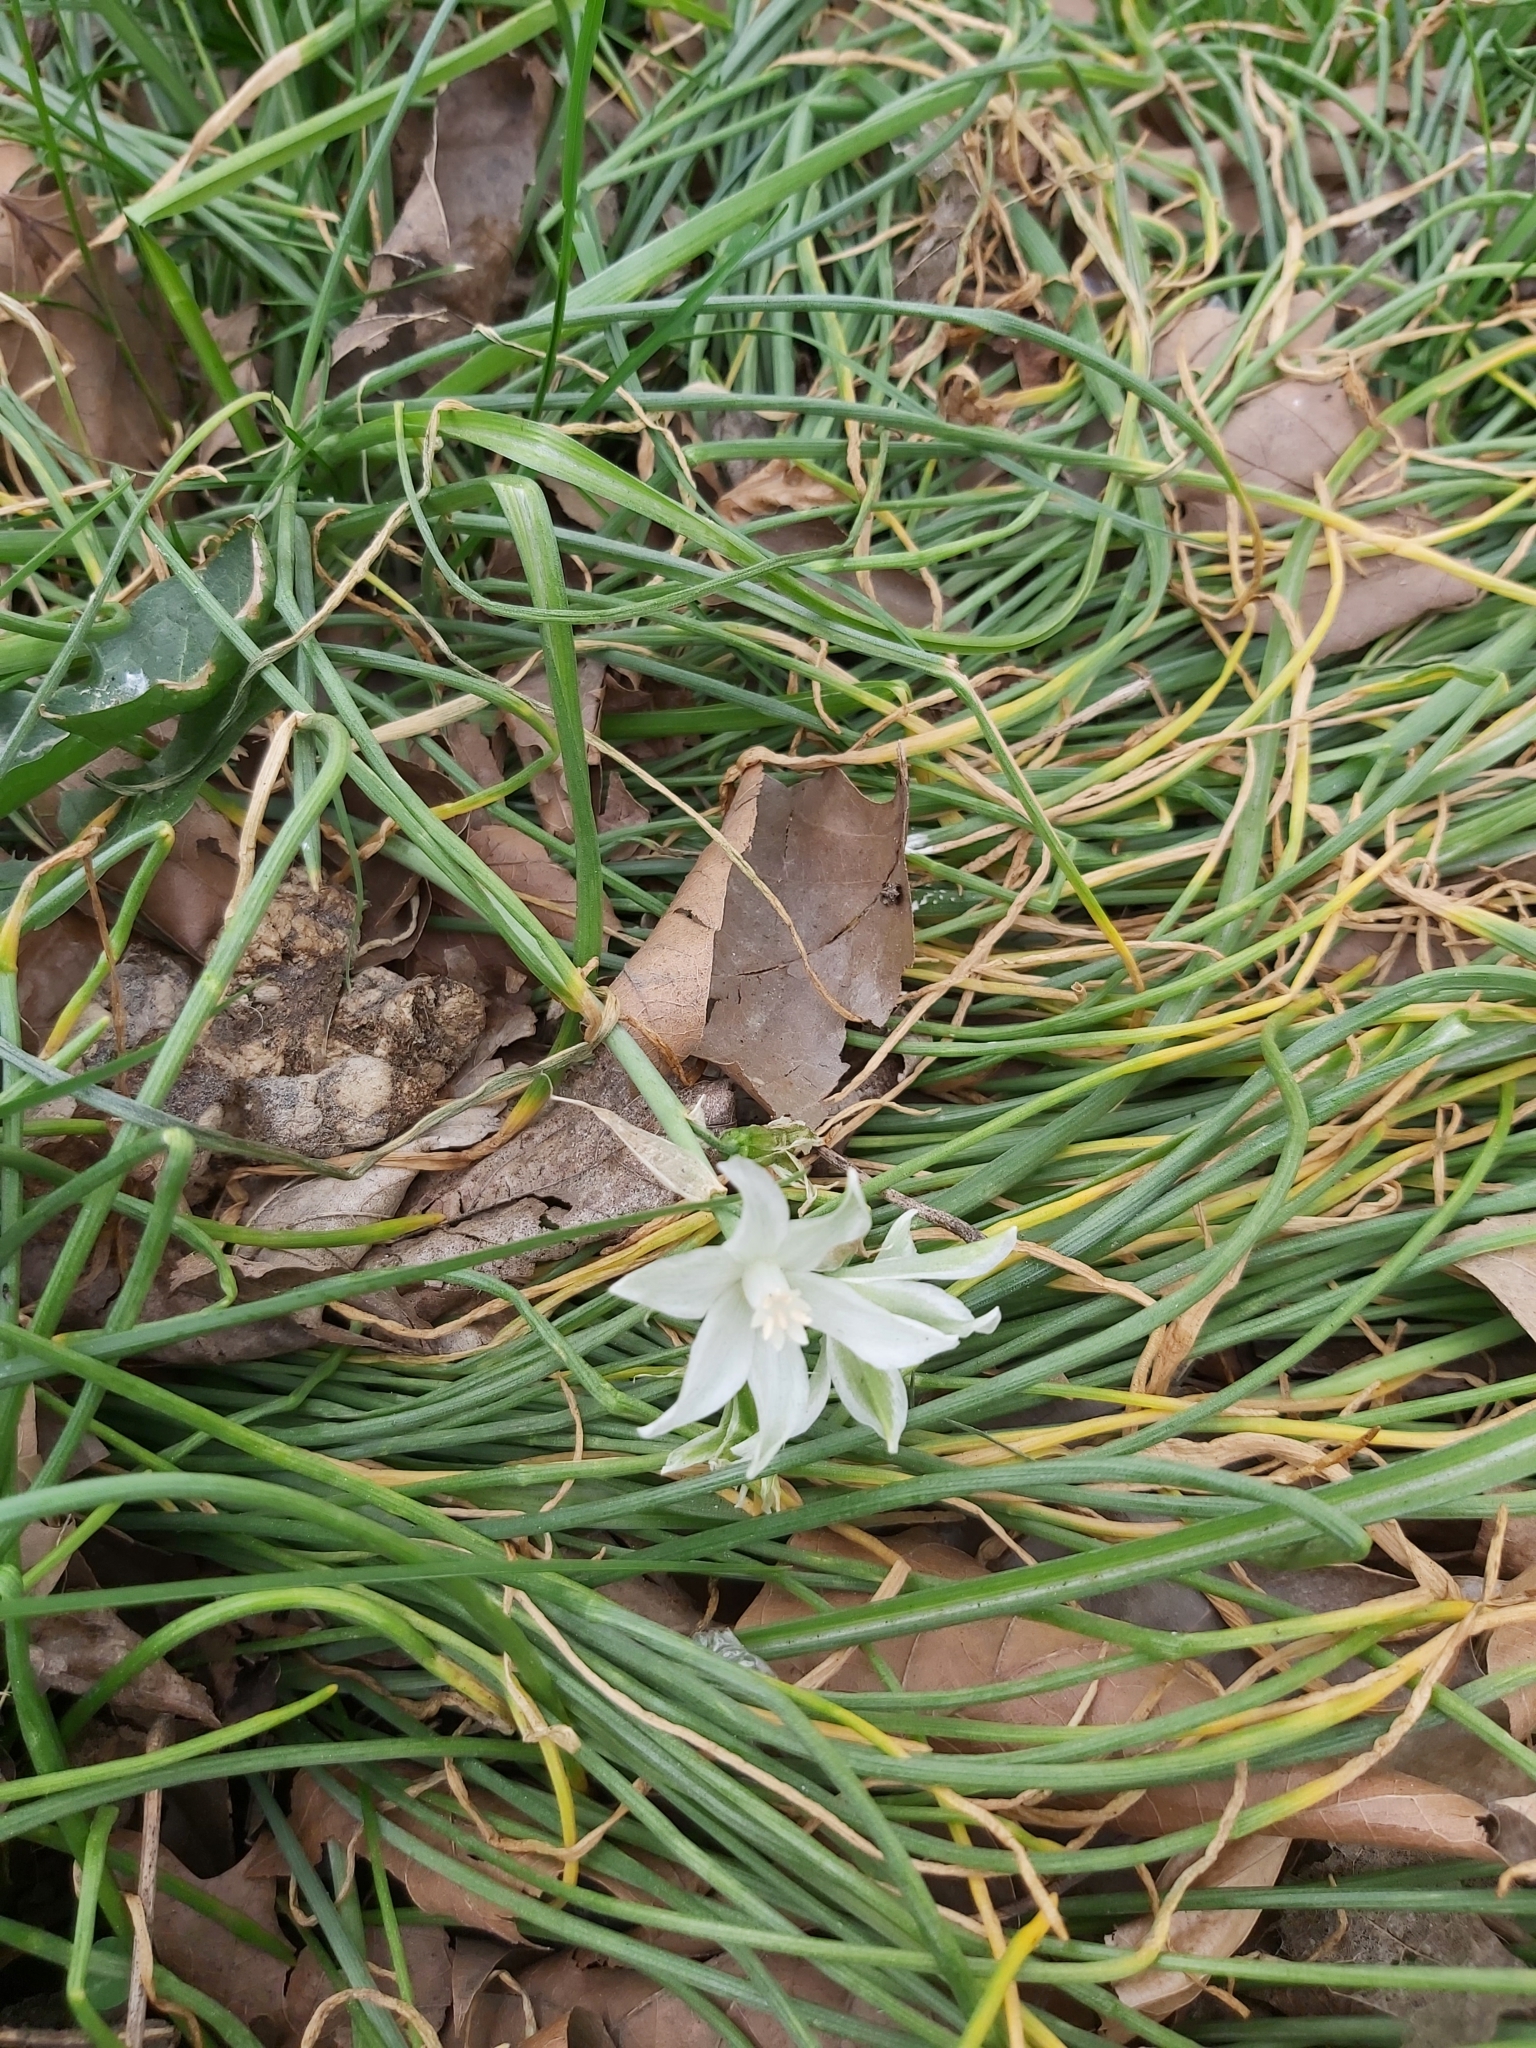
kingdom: Plantae
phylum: Tracheophyta
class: Liliopsida
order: Asparagales
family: Asparagaceae
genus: Ornithogalum
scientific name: Ornithogalum nutans
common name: Drooping star-of-bethlehem
